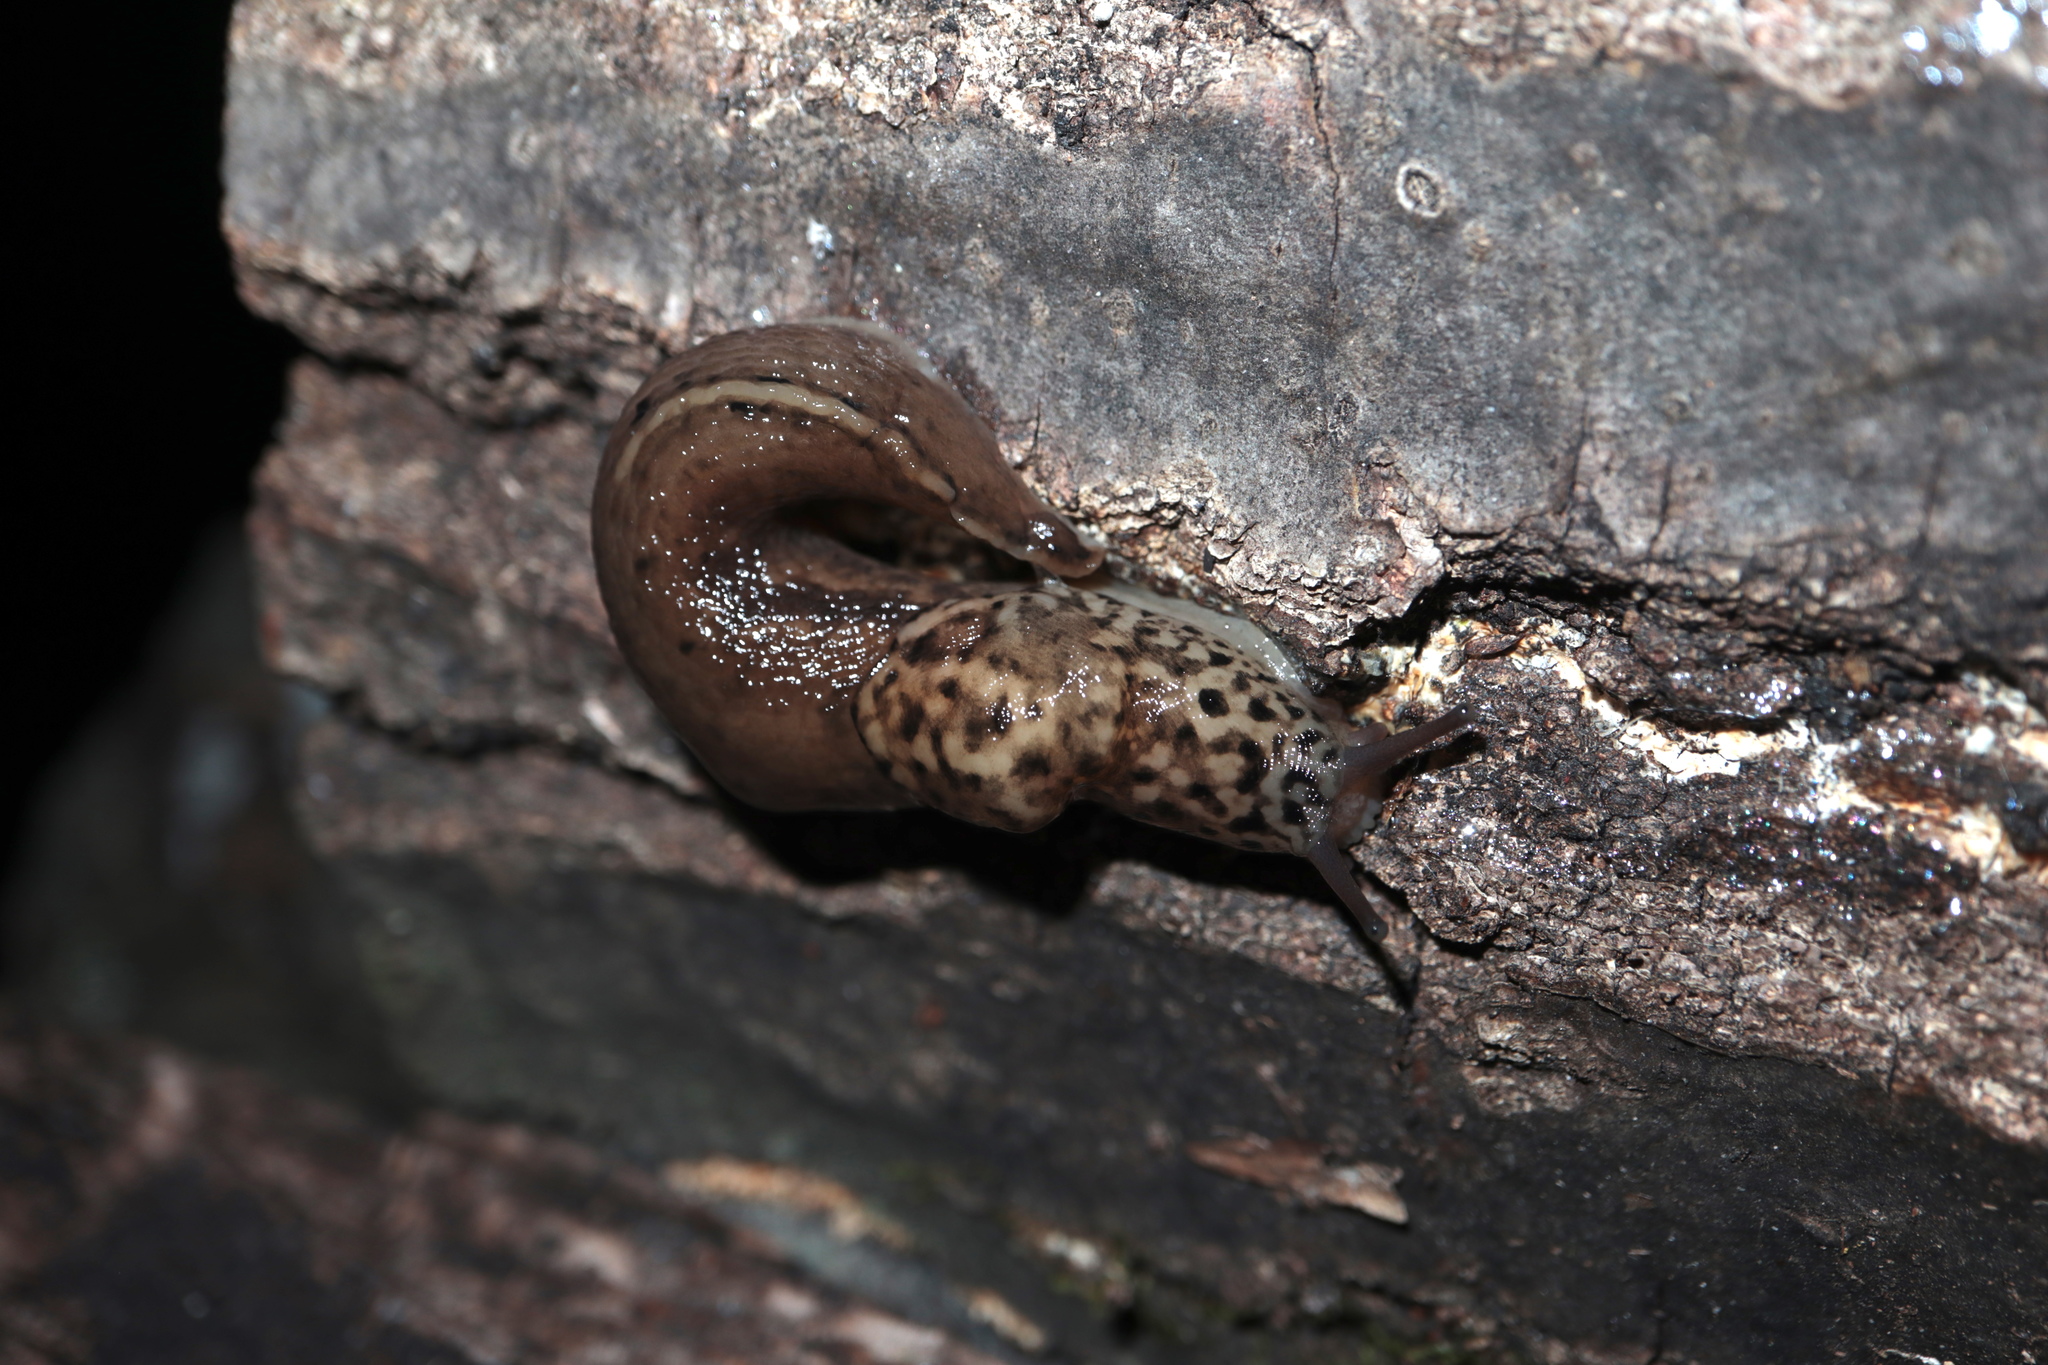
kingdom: Animalia
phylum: Mollusca
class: Gastropoda
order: Stylommatophora
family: Limacidae
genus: Limax
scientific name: Limax maximus
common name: Great grey slug
